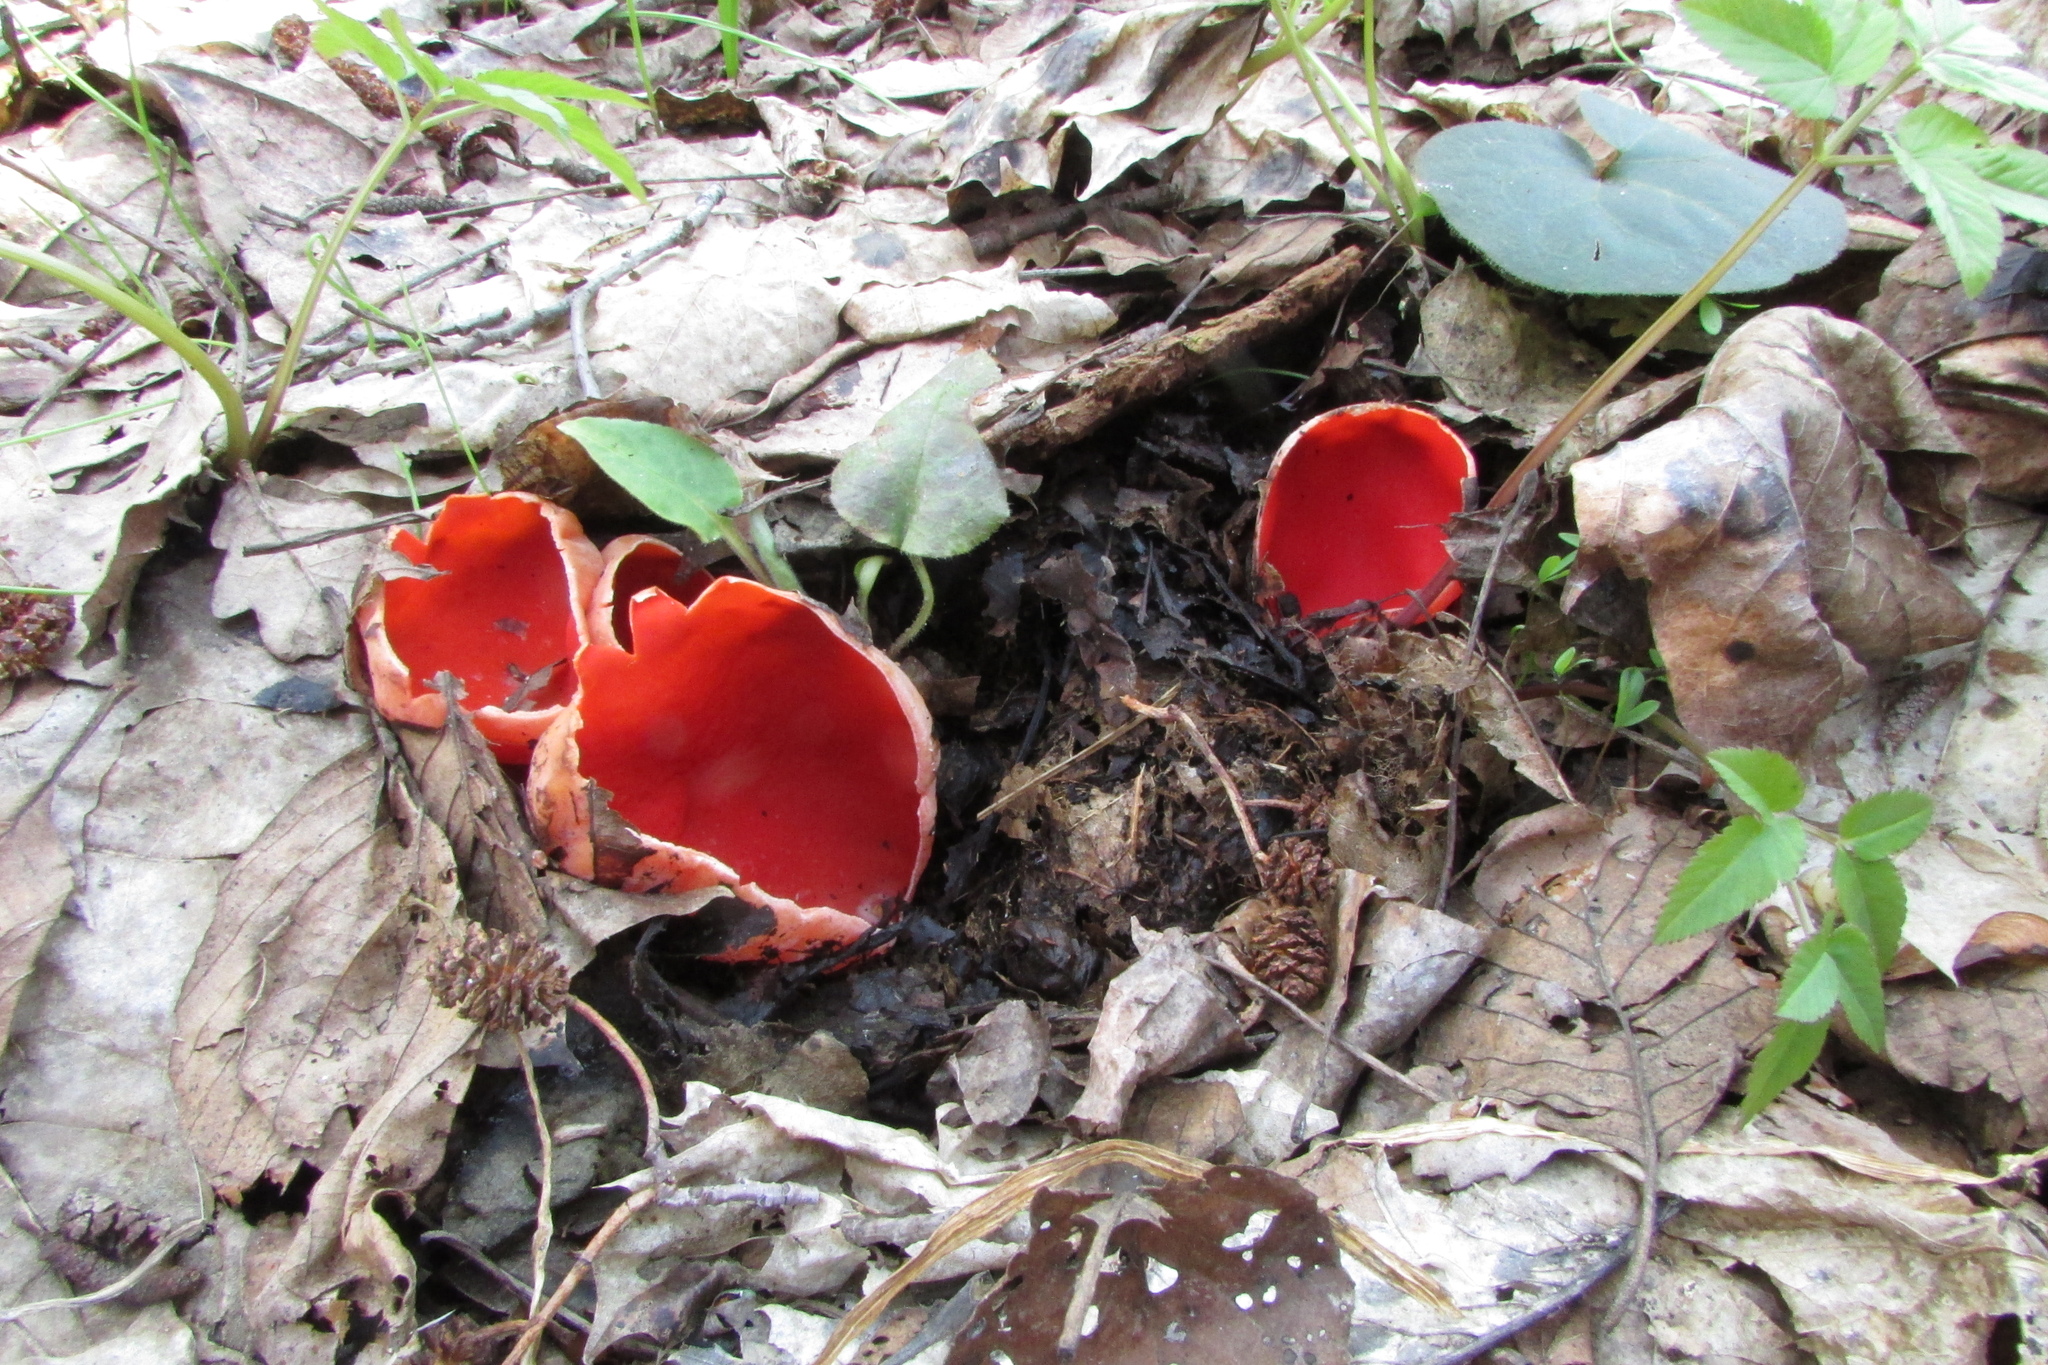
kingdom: Fungi
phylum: Ascomycota
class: Pezizomycetes
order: Pezizales
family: Sarcoscyphaceae
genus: Sarcoscypha
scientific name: Sarcoscypha
